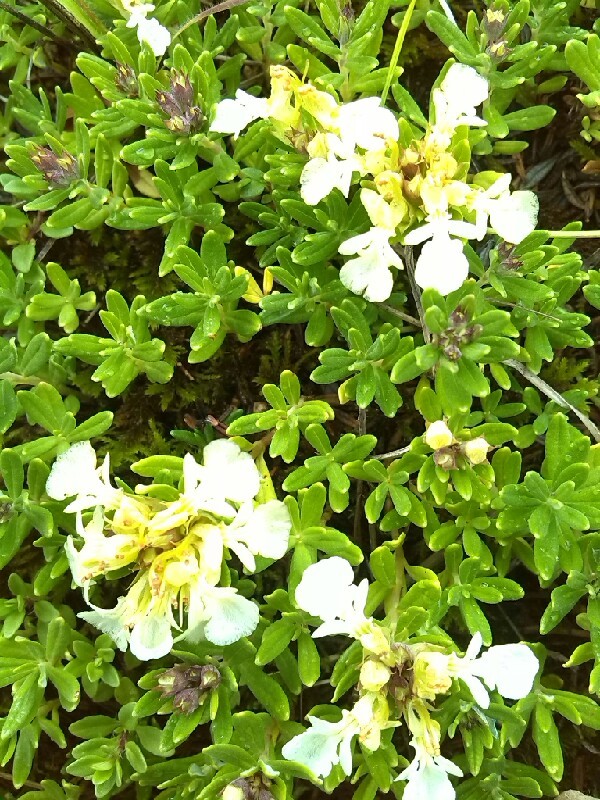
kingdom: Plantae
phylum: Tracheophyta
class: Magnoliopsida
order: Lamiales
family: Lamiaceae
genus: Teucrium
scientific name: Teucrium montanum
